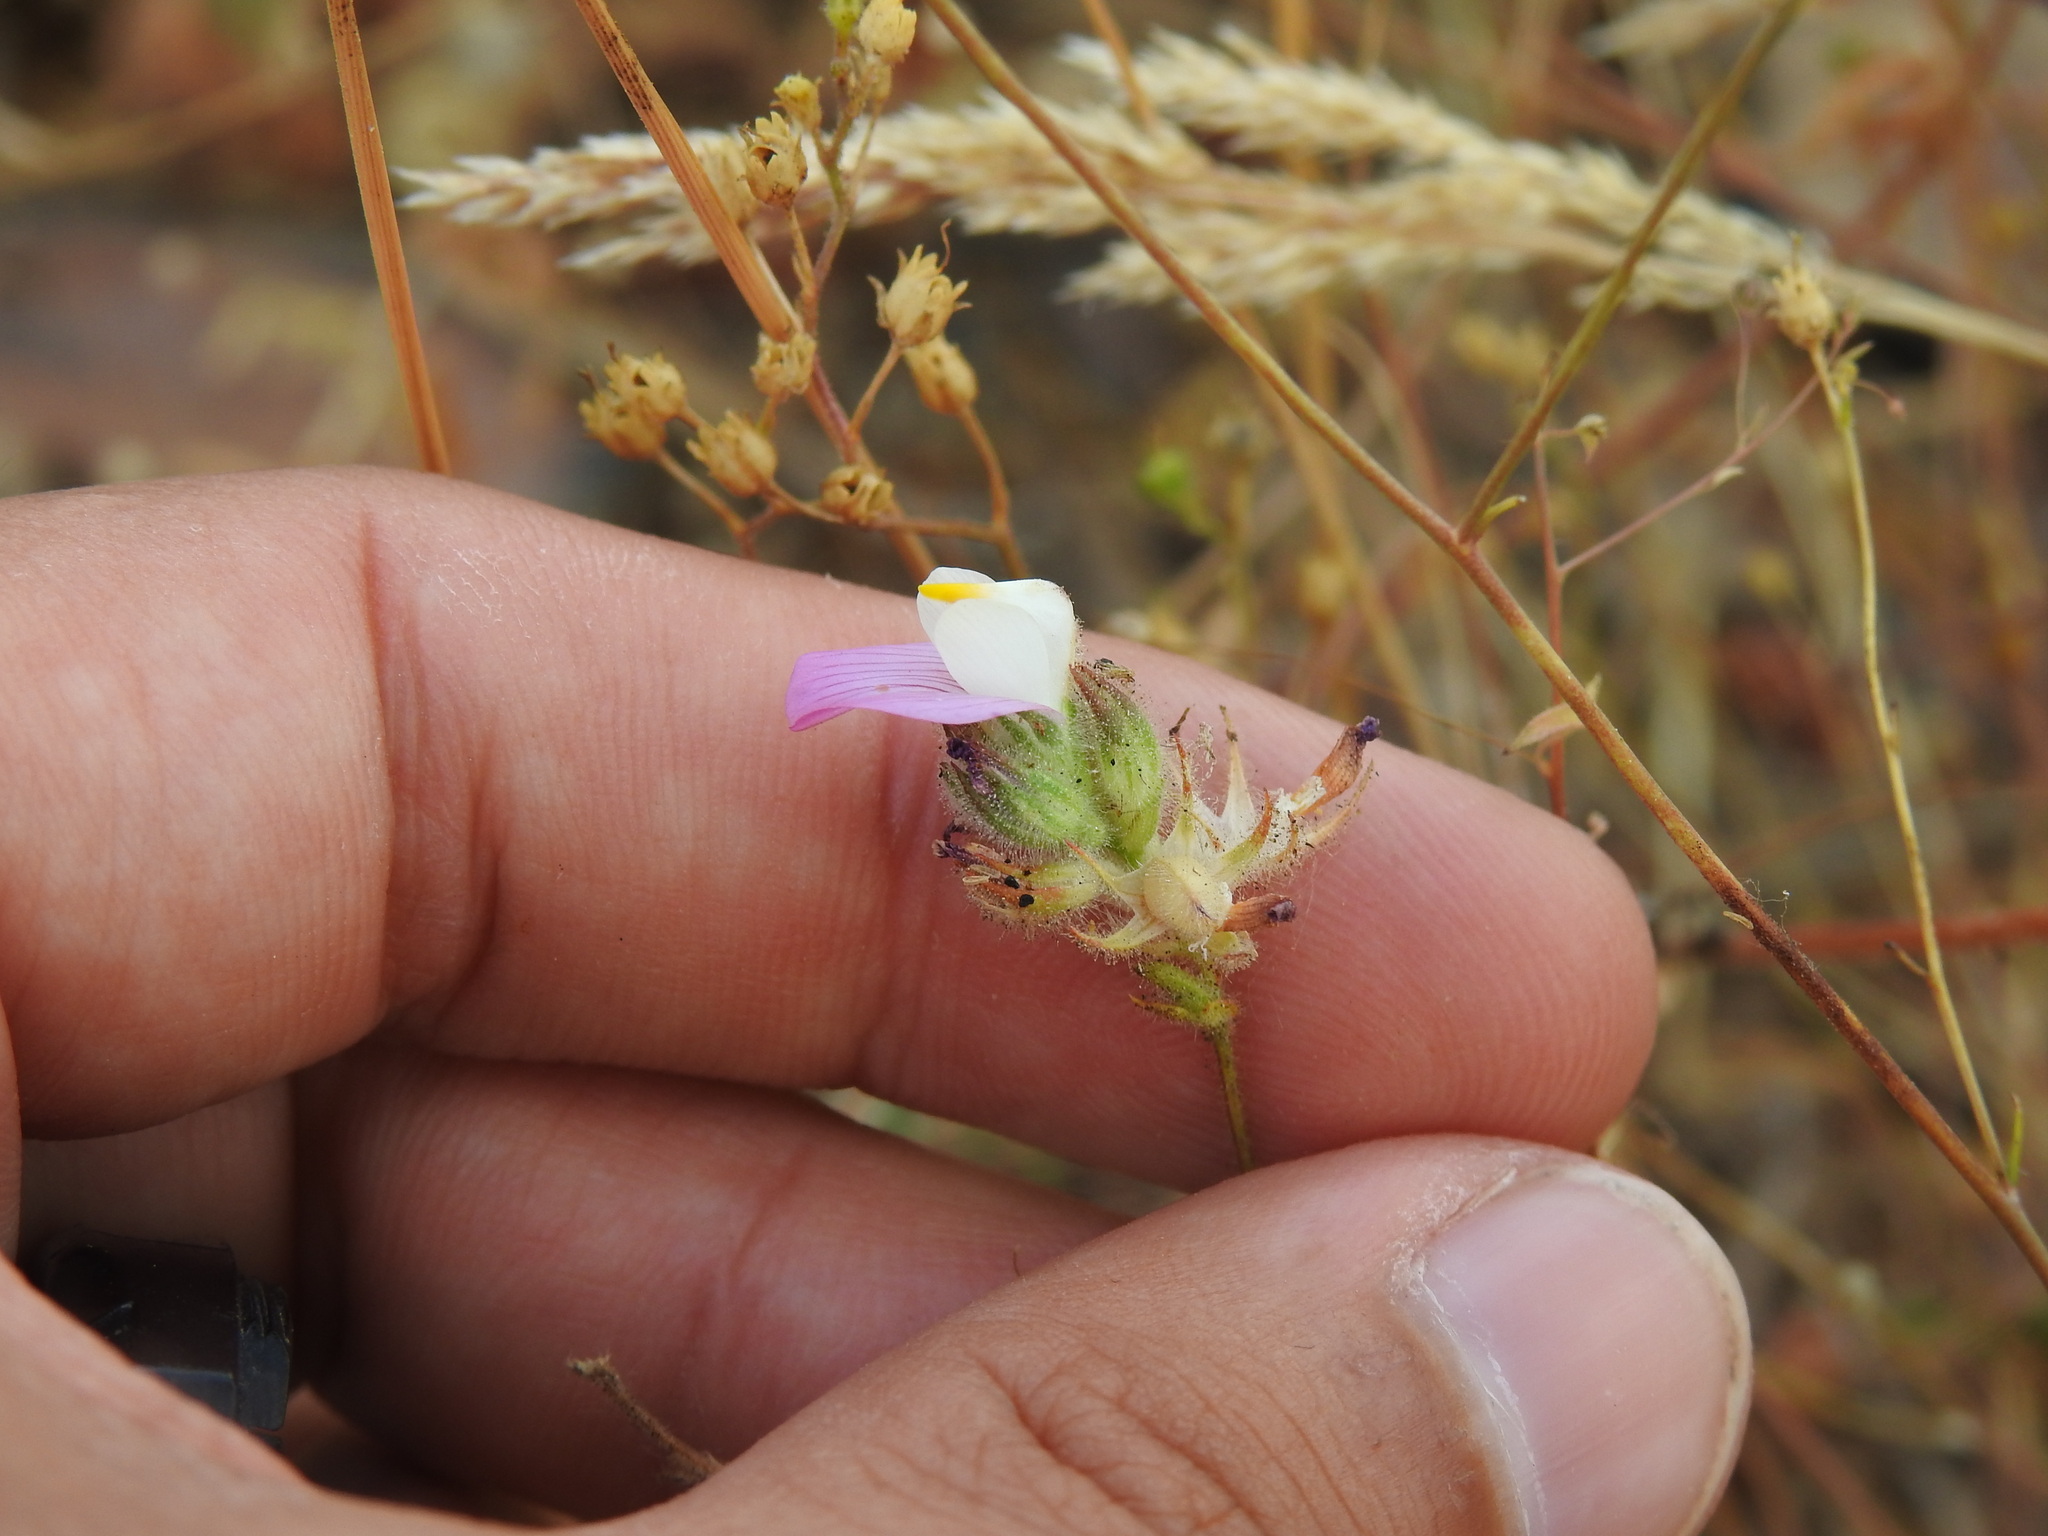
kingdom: Plantae
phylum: Tracheophyta
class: Magnoliopsida
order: Fabales
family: Fabaceae
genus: Ononis
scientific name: Ononis baetica
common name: Andalucian restharrow
